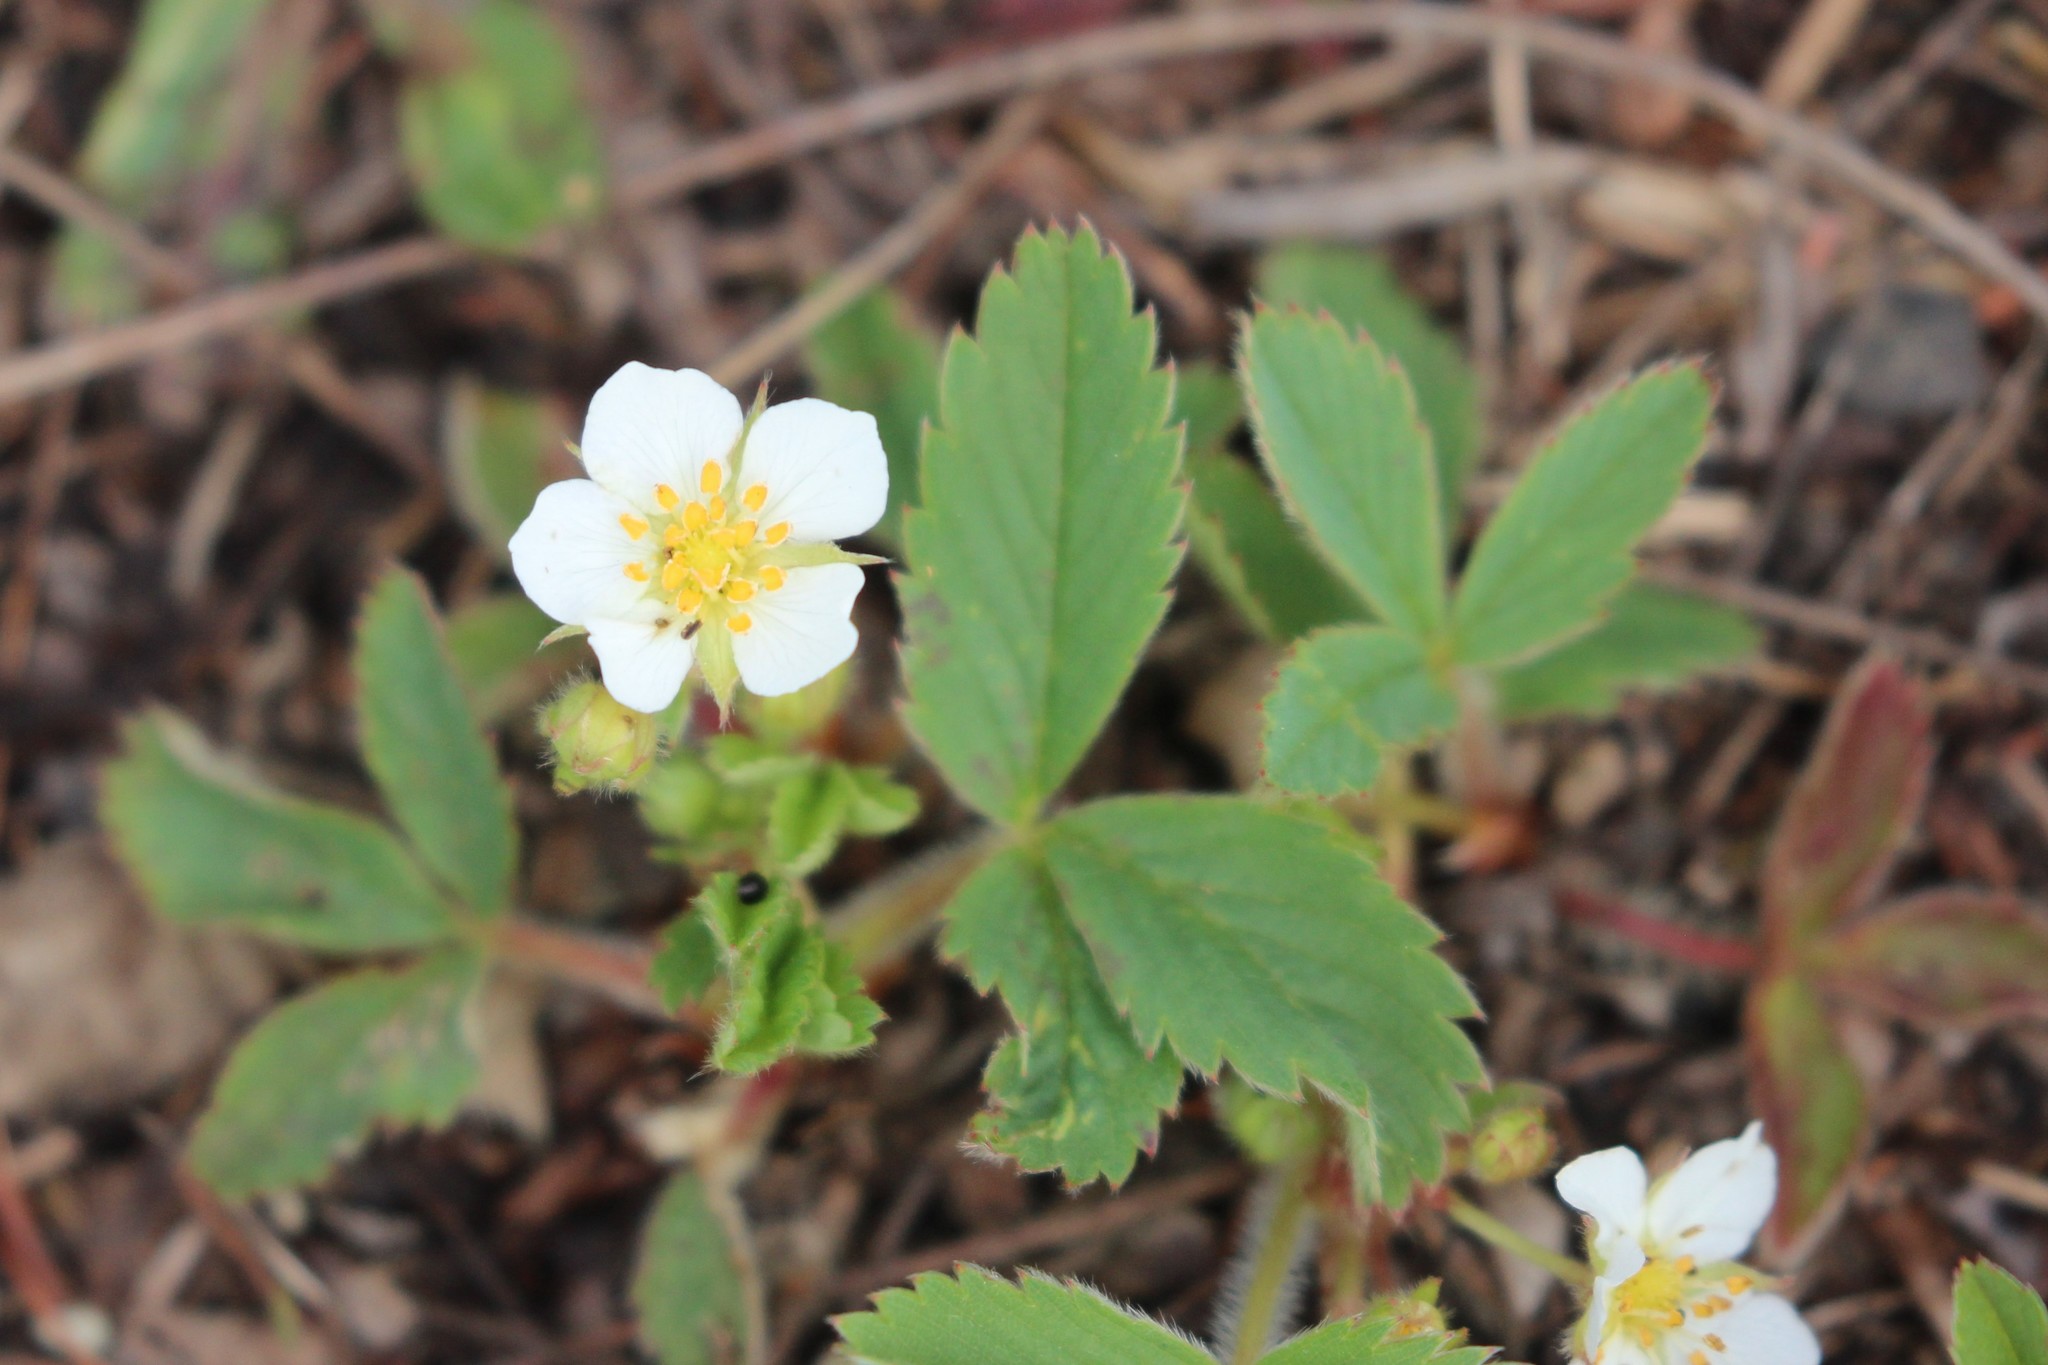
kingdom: Plantae
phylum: Tracheophyta
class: Magnoliopsida
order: Rosales
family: Rosaceae
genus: Fragaria
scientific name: Fragaria virginiana
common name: Thickleaved wild strawberry
